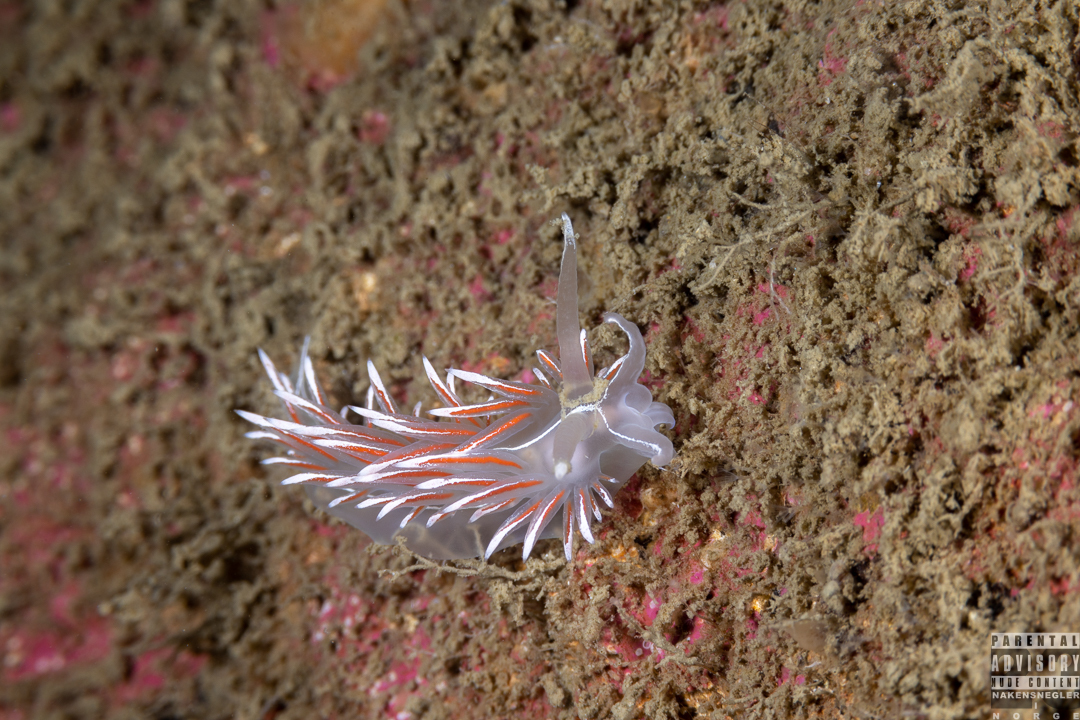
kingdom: Animalia
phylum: Mollusca
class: Gastropoda
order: Nudibranchia
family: Coryphellidae
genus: Coryphella
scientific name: Coryphella lineata
